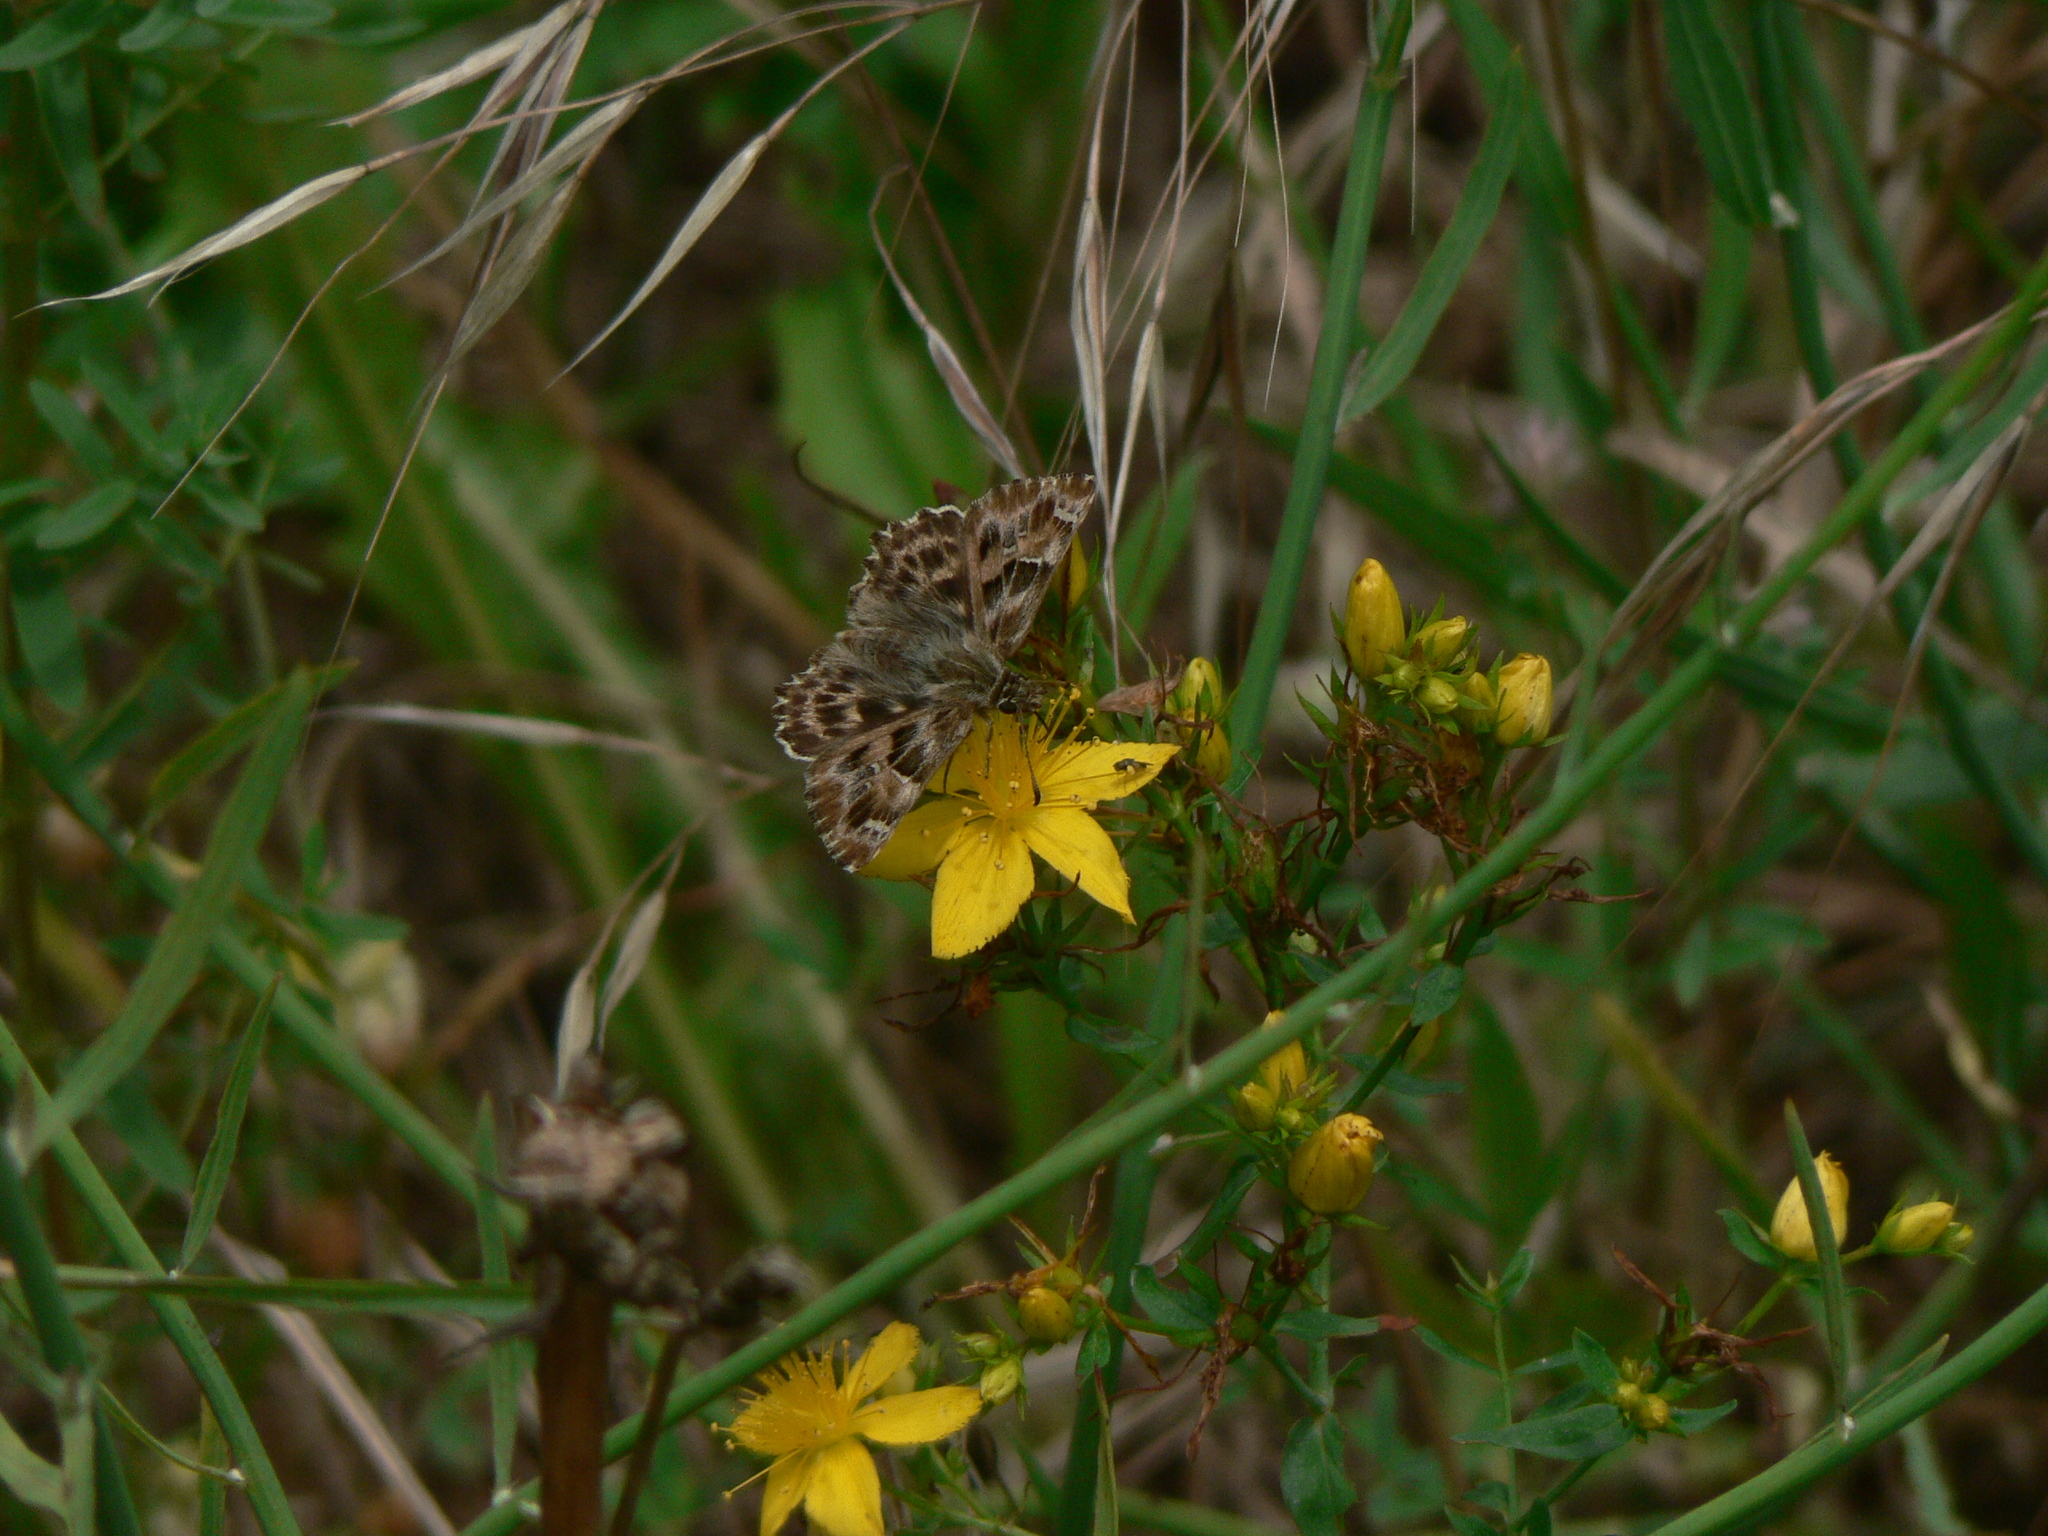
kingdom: Animalia
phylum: Arthropoda
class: Insecta
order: Lepidoptera
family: Hesperiidae
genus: Carcharodus
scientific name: Carcharodus alceae
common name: Mallow skipper
